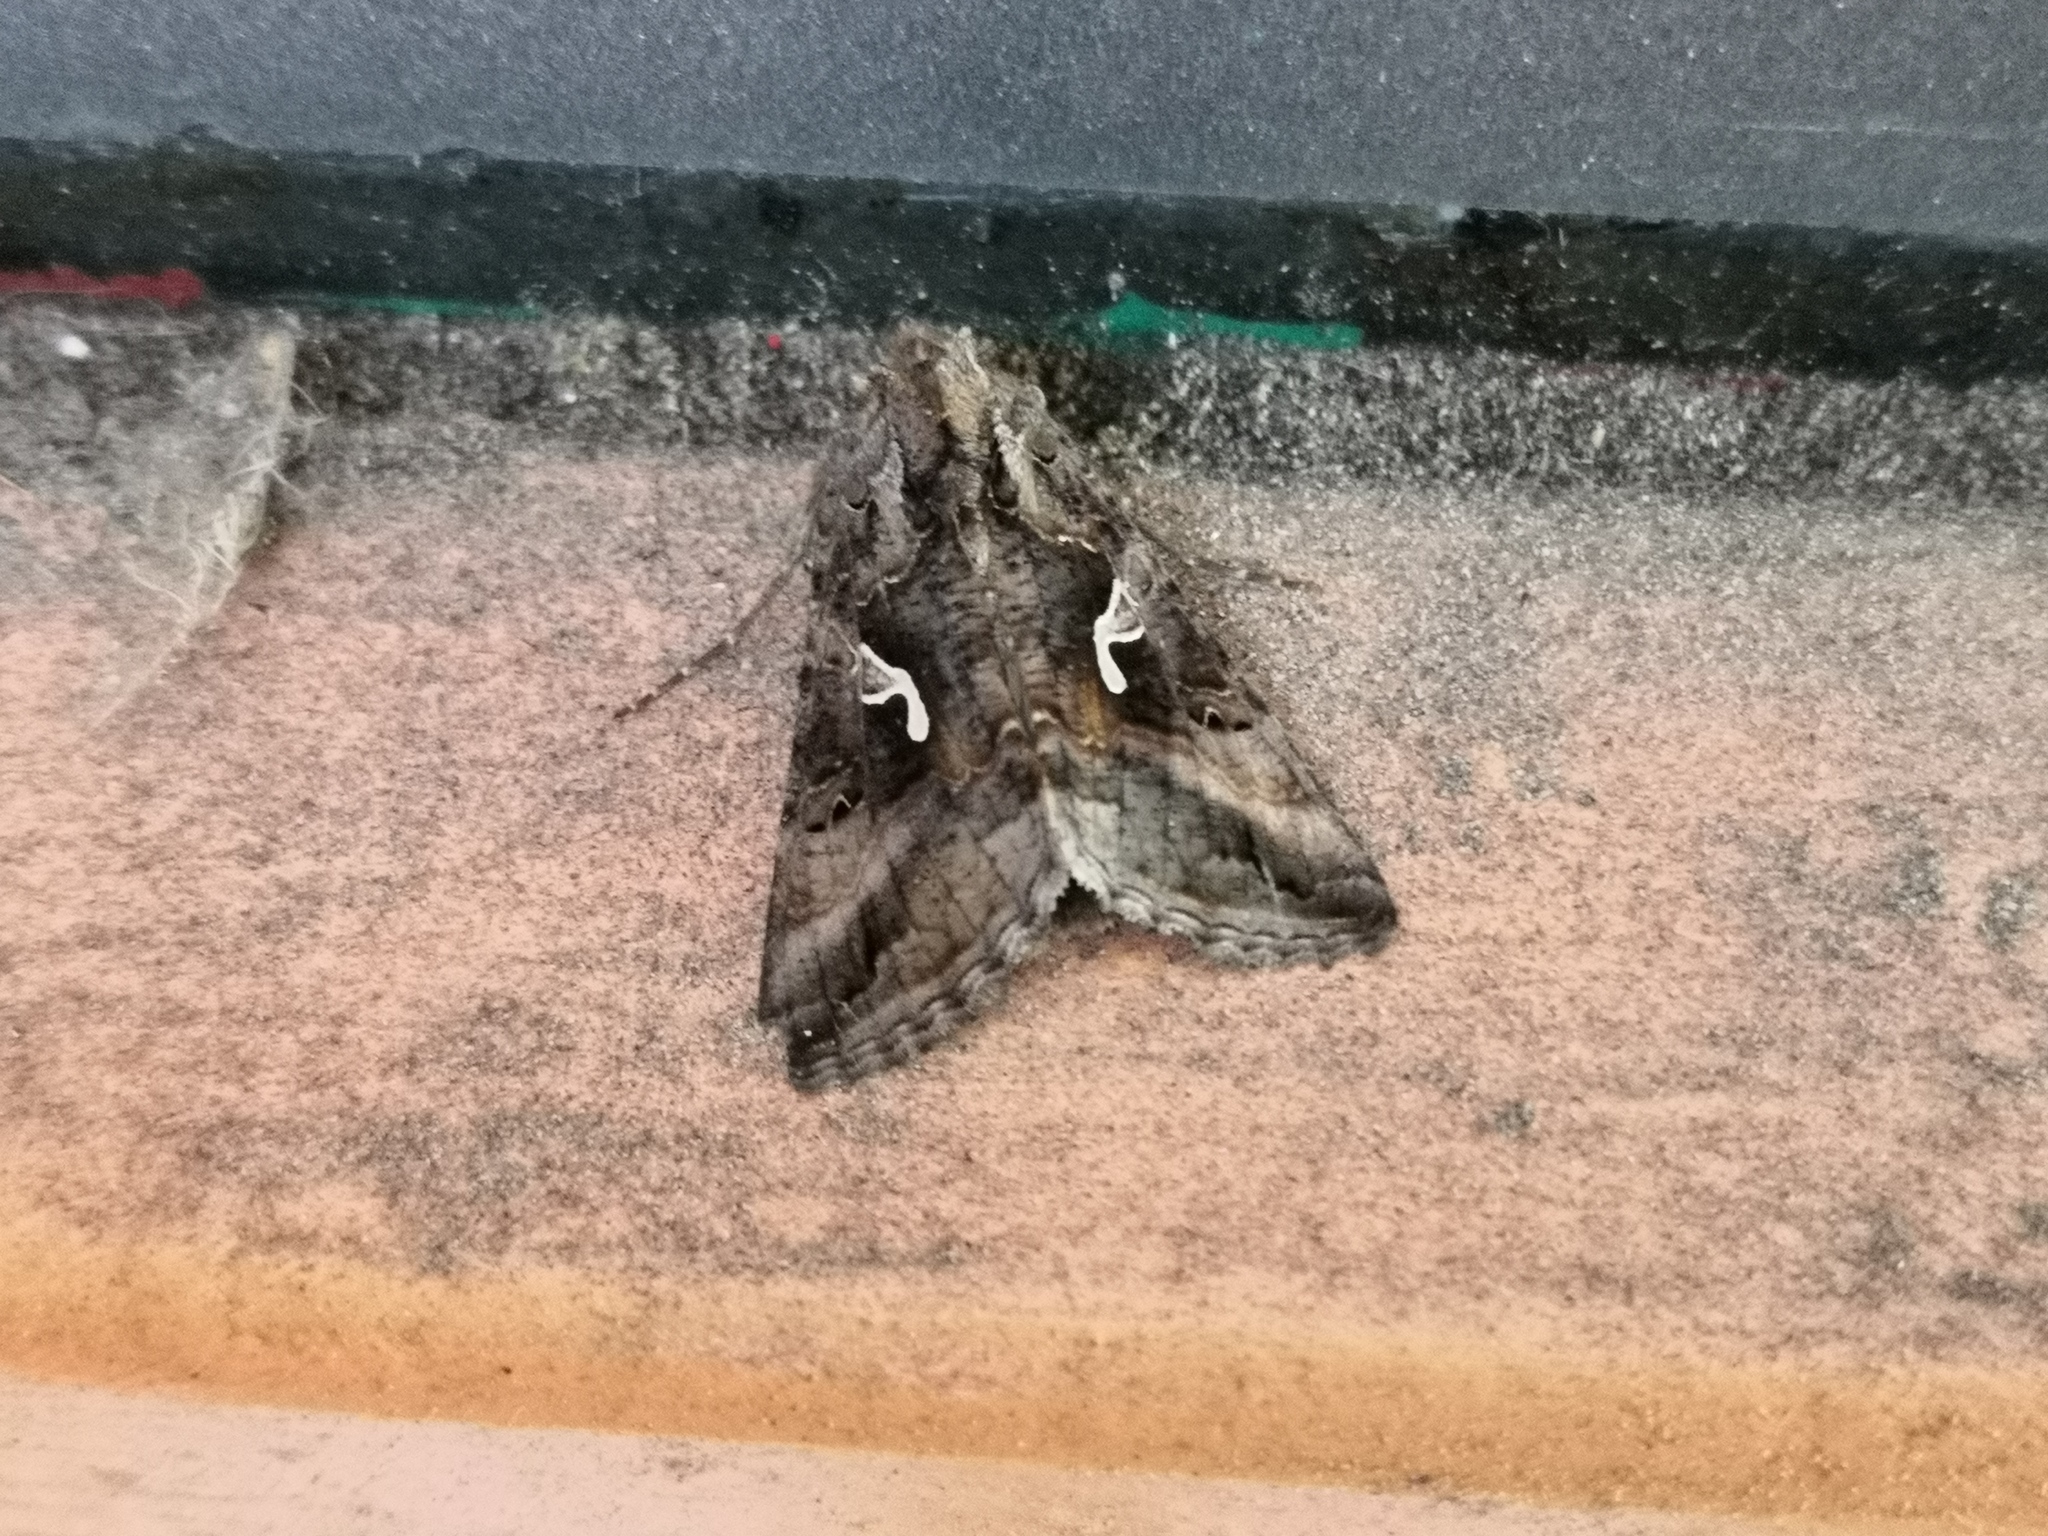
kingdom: Animalia
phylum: Arthropoda
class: Insecta
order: Lepidoptera
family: Noctuidae
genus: Autographa
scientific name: Autographa gamma
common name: Silver y
